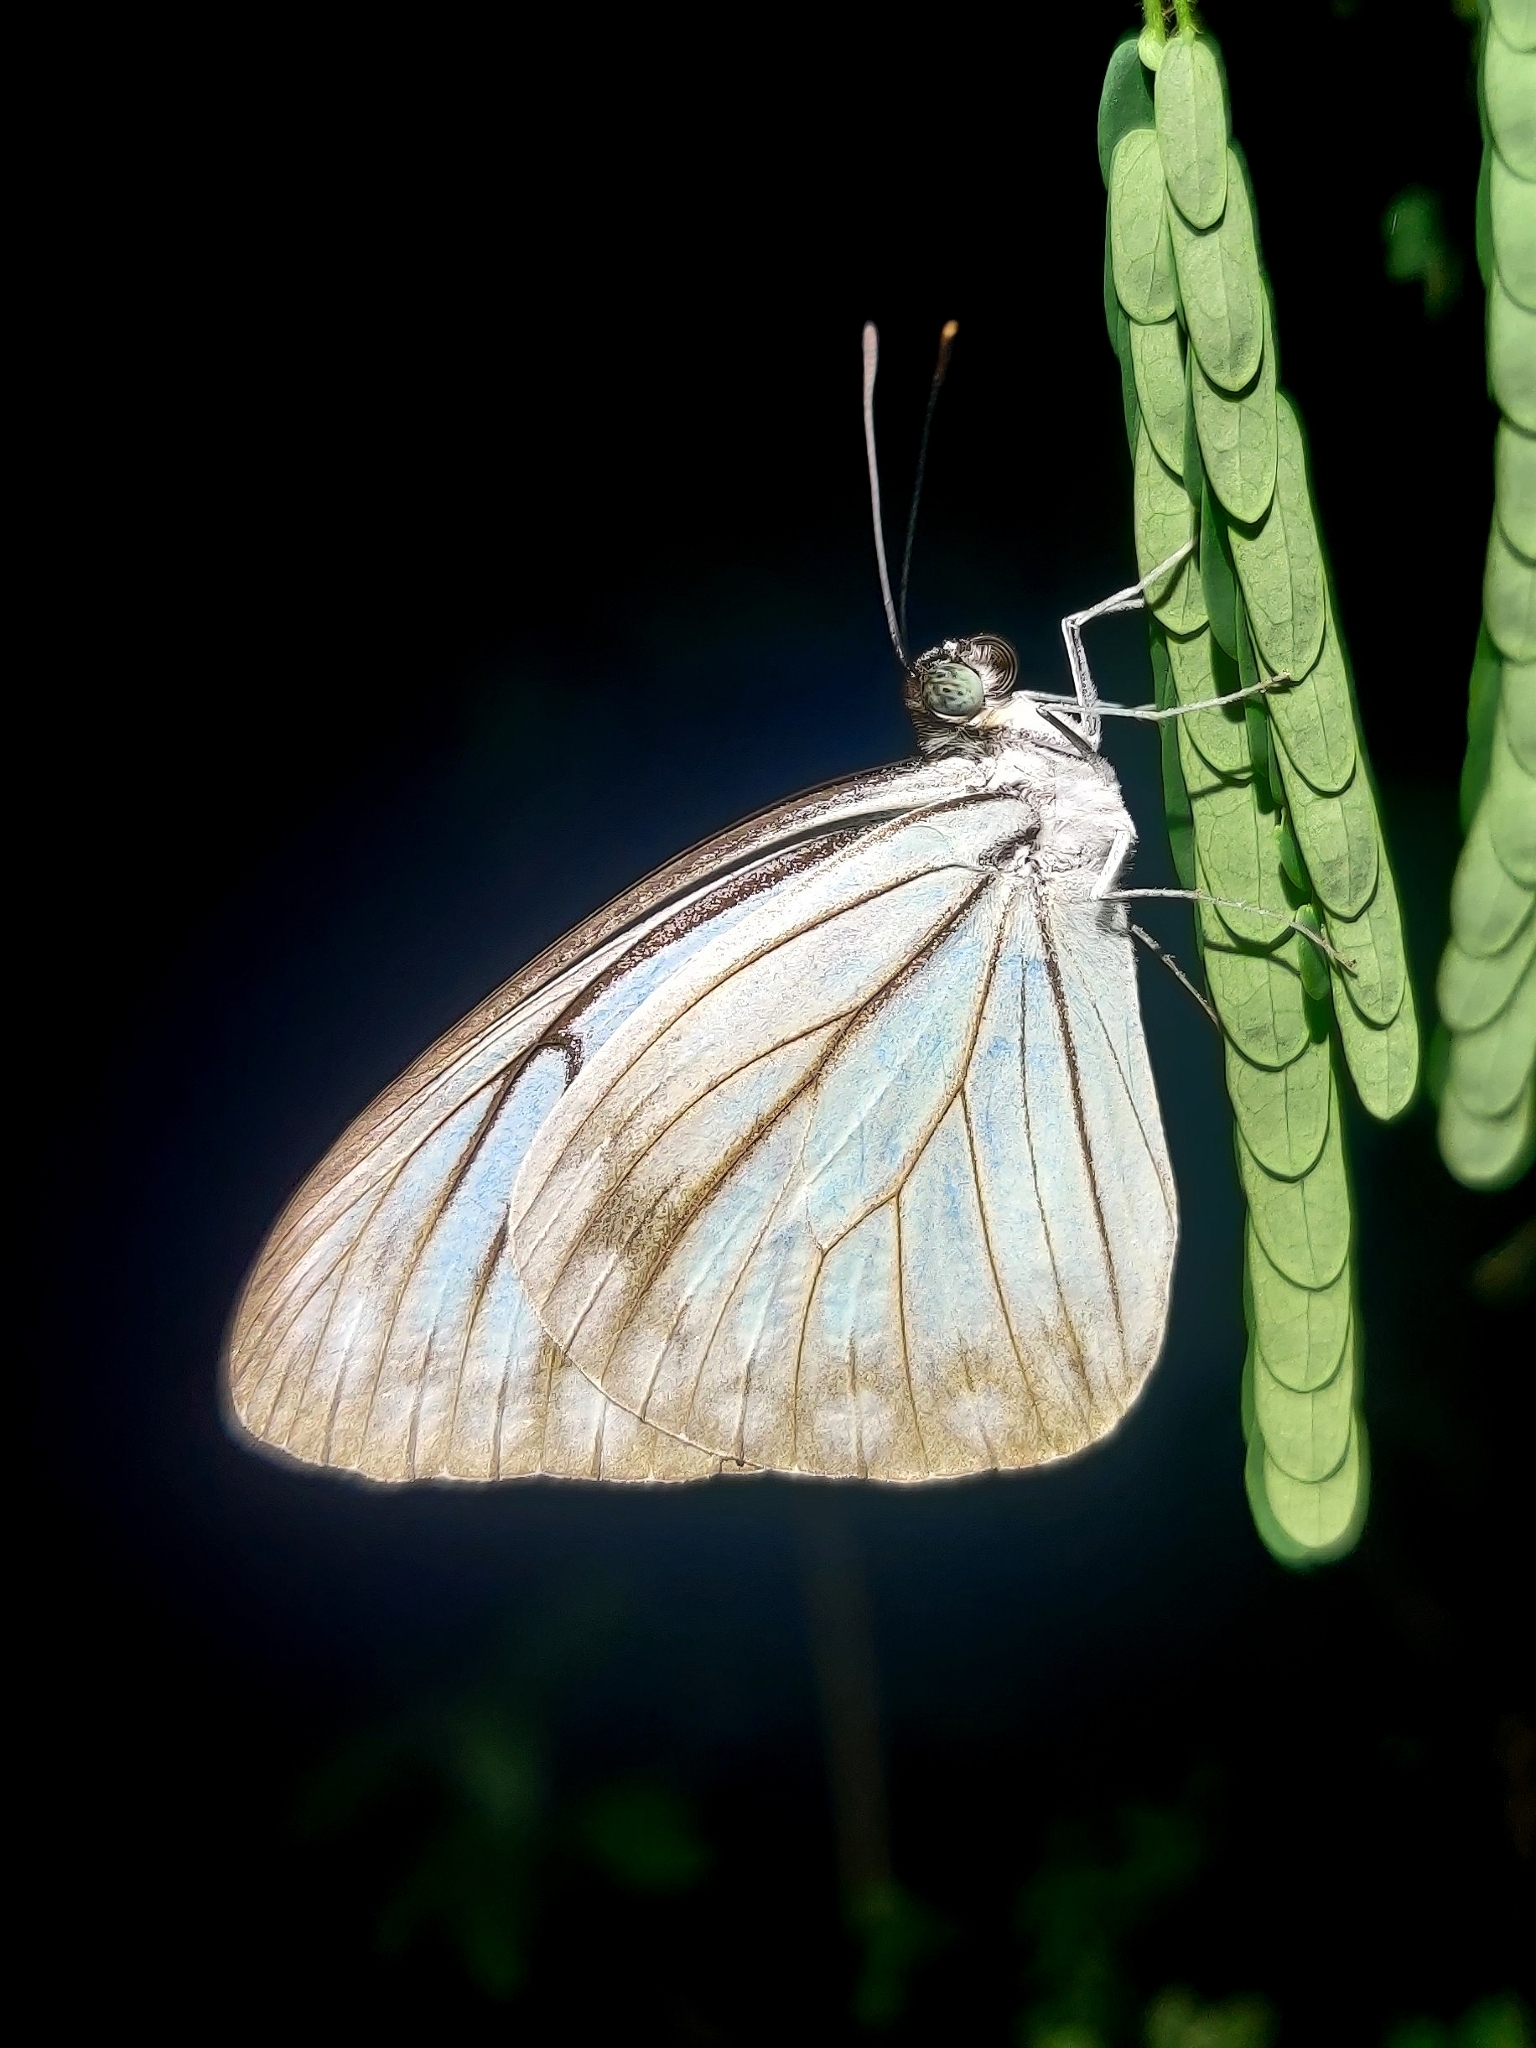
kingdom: Animalia
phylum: Arthropoda
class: Insecta
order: Lepidoptera
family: Pieridae
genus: Pareronia
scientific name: Pareronia hippia
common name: Indian wanderer
